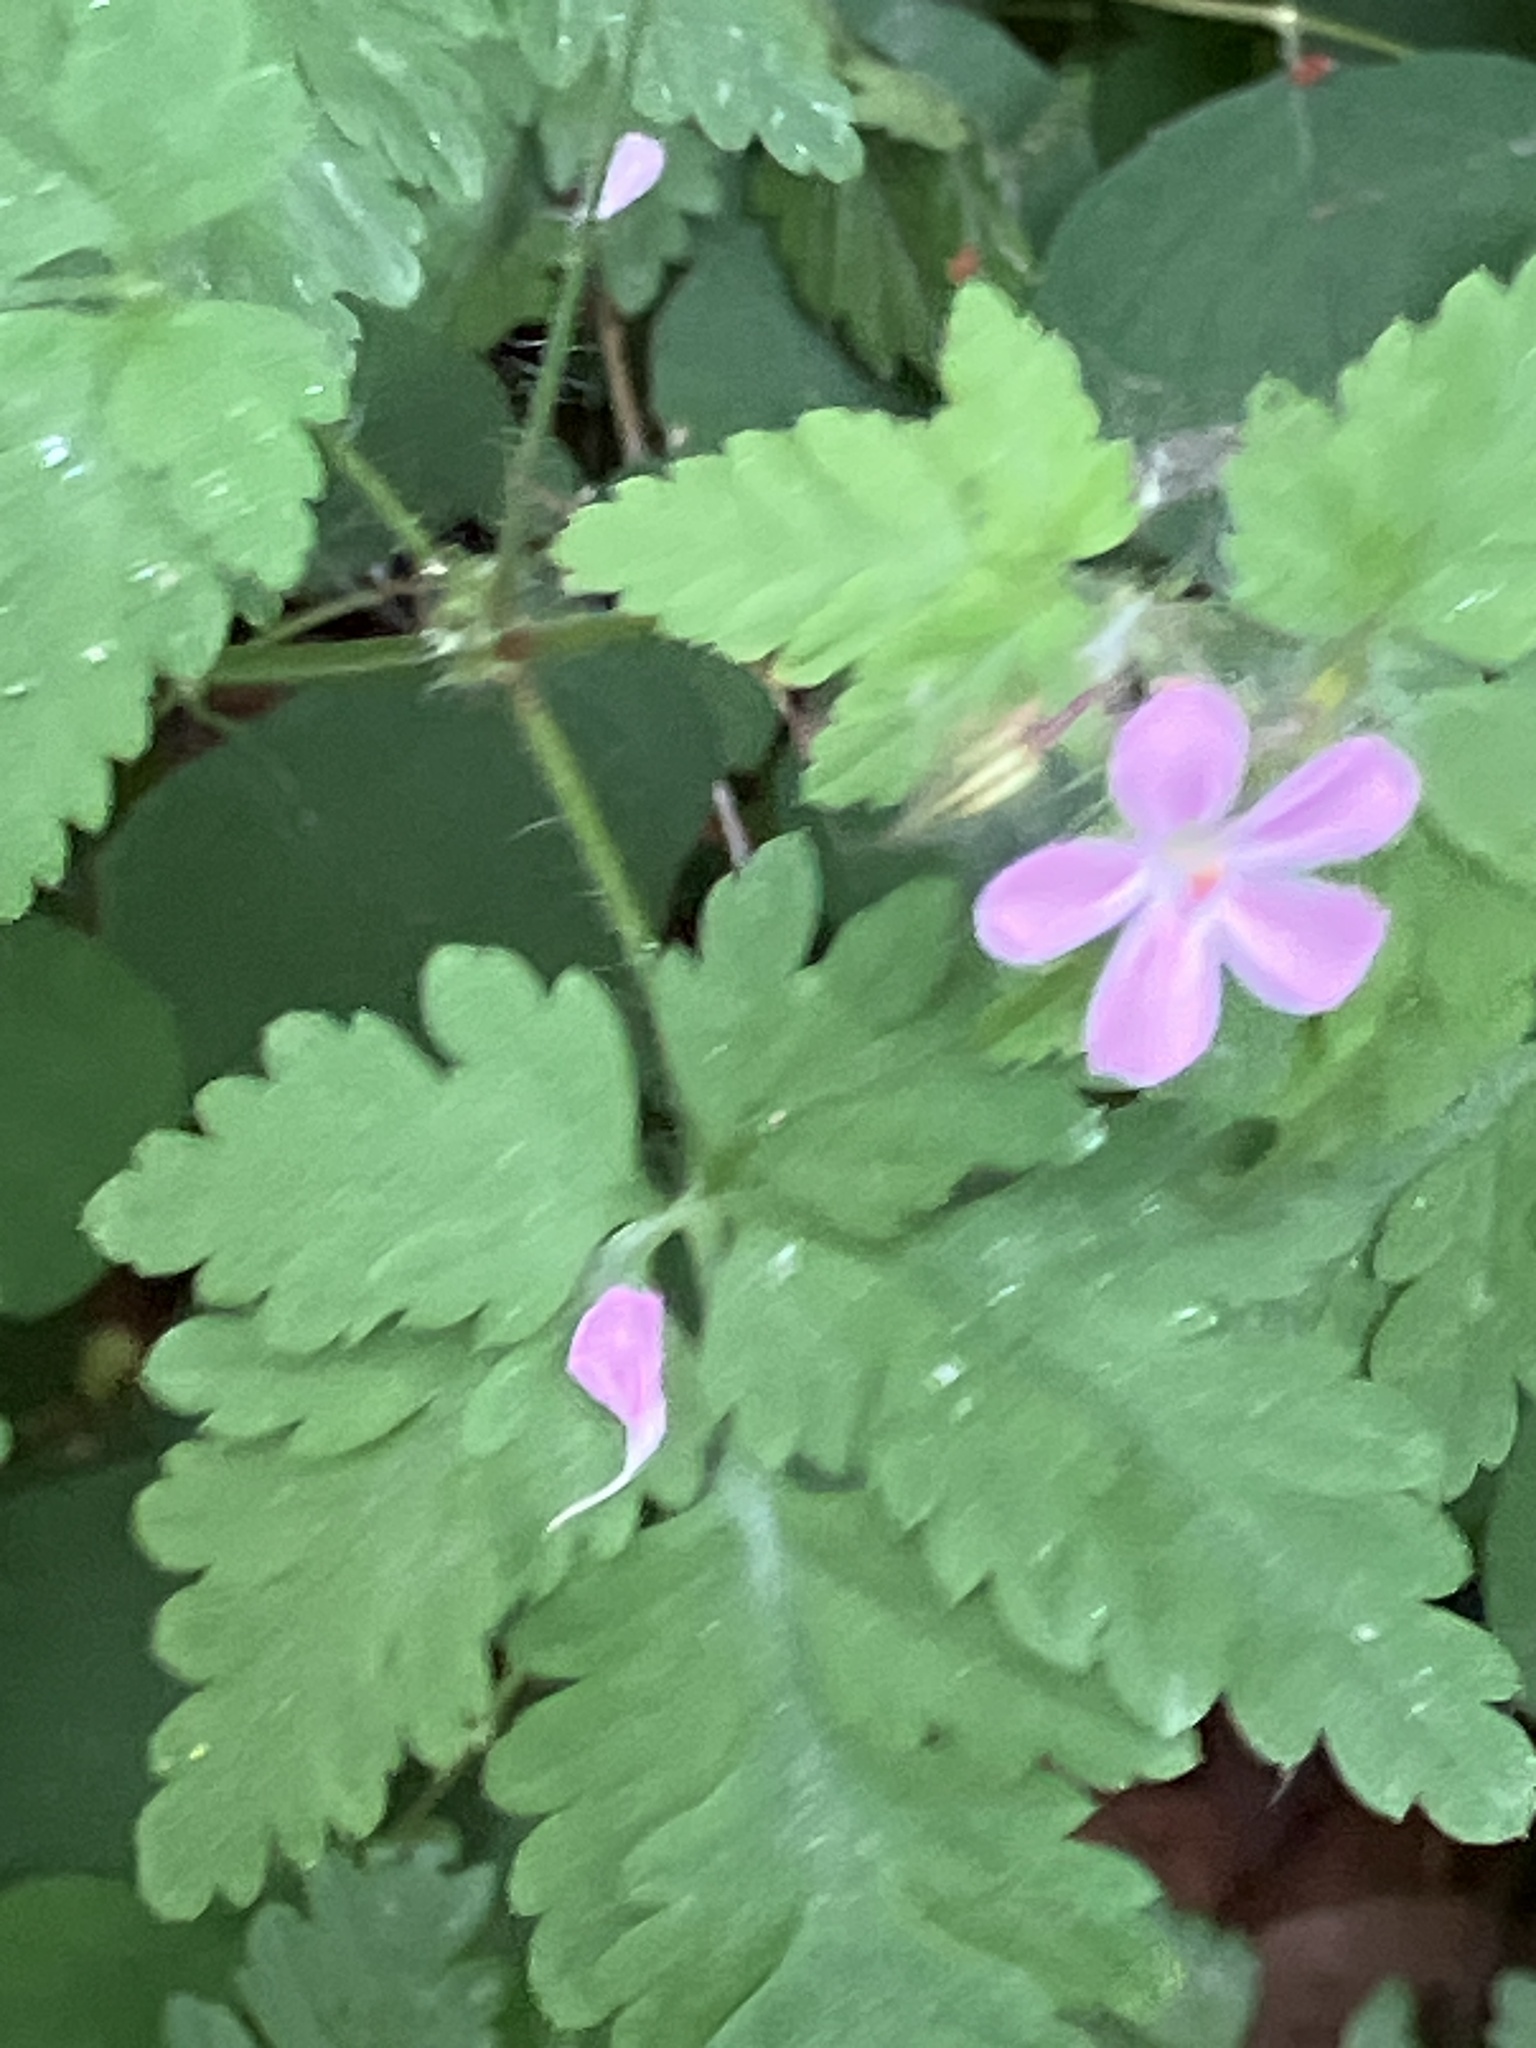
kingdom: Plantae
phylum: Tracheophyta
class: Magnoliopsida
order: Geraniales
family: Geraniaceae
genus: Geranium
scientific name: Geranium robertianum
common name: Herb-robert
